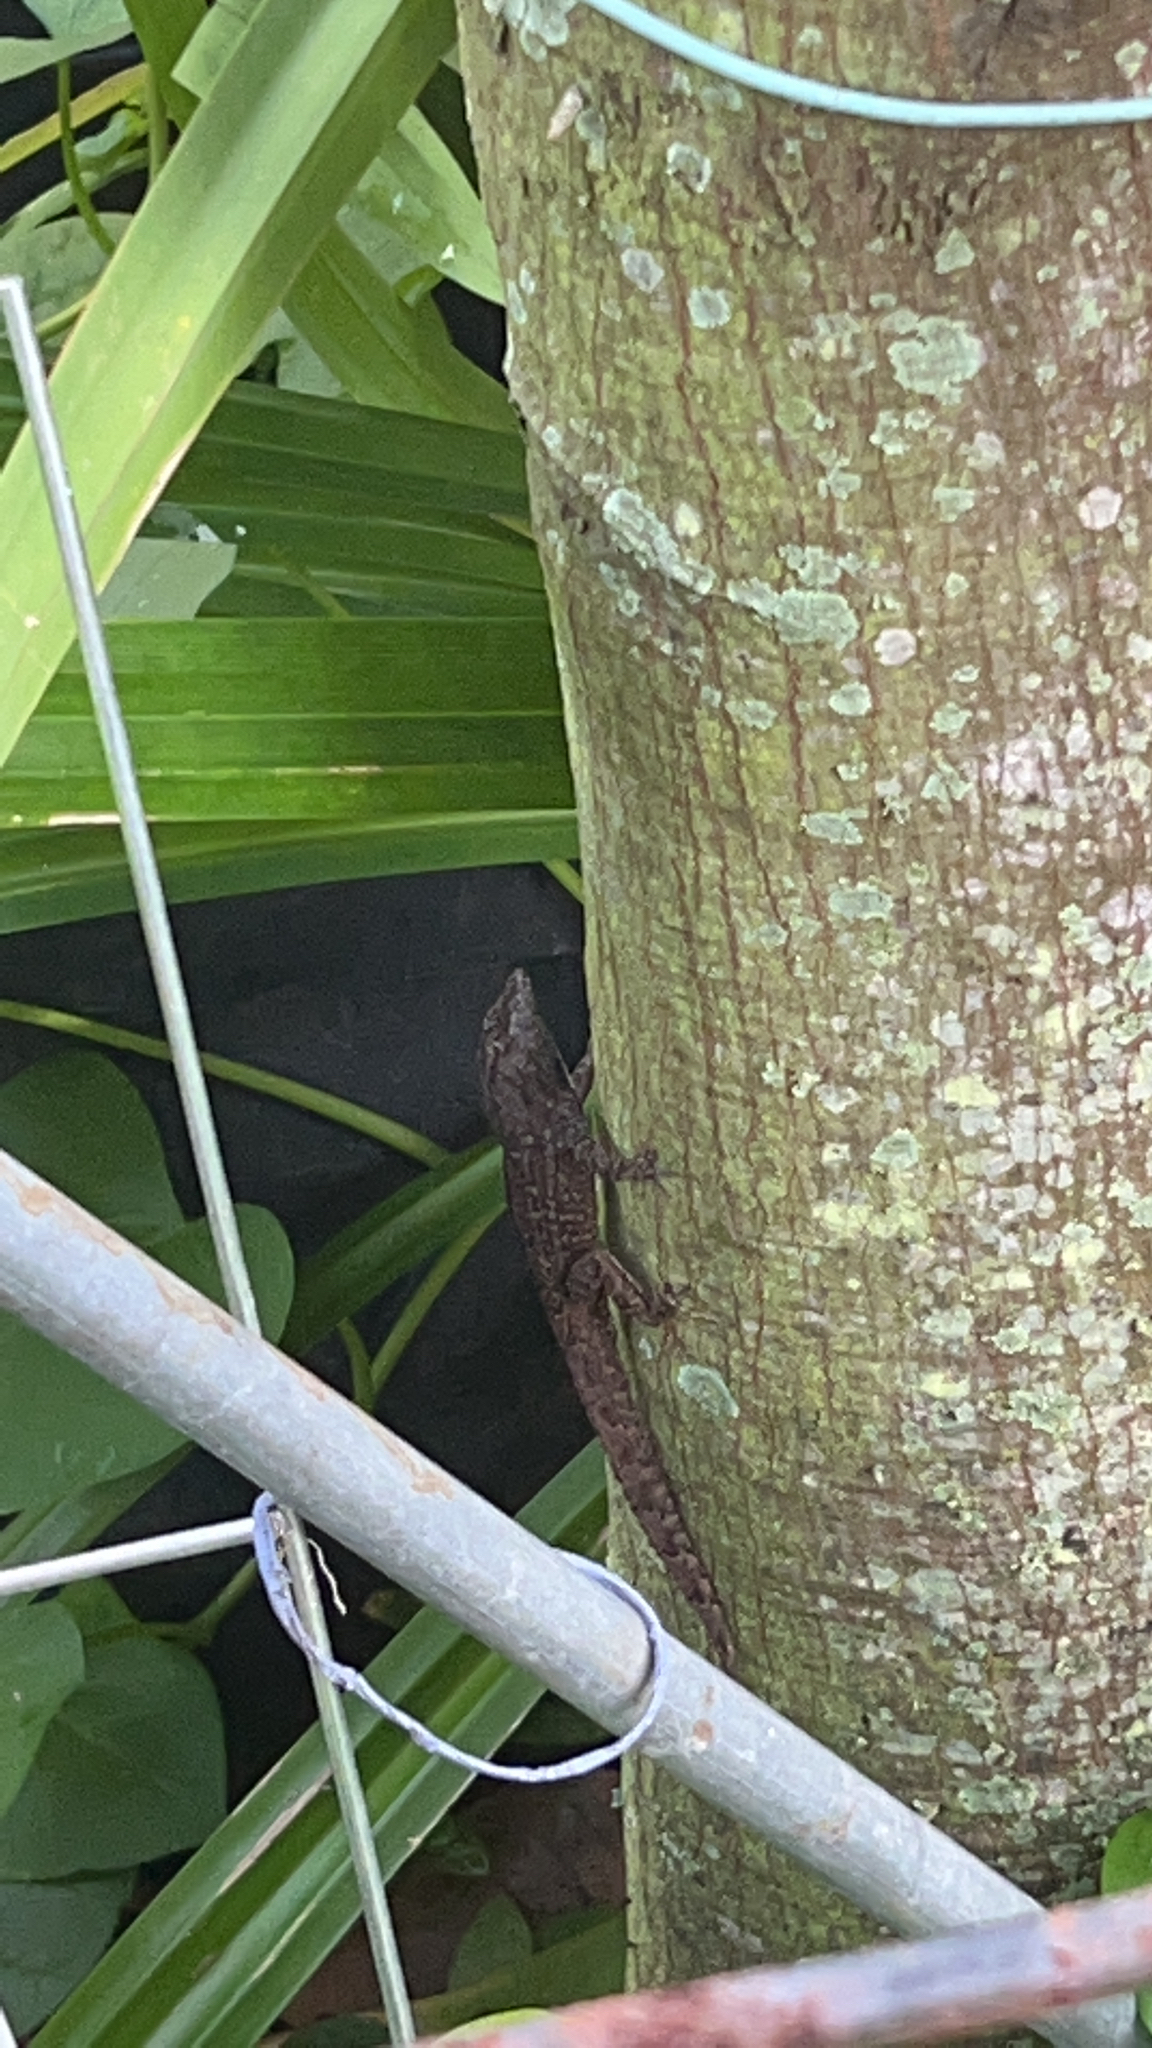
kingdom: Animalia
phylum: Chordata
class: Squamata
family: Dactyloidae
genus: Anolis
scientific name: Anolis sagrei
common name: Brown anole
